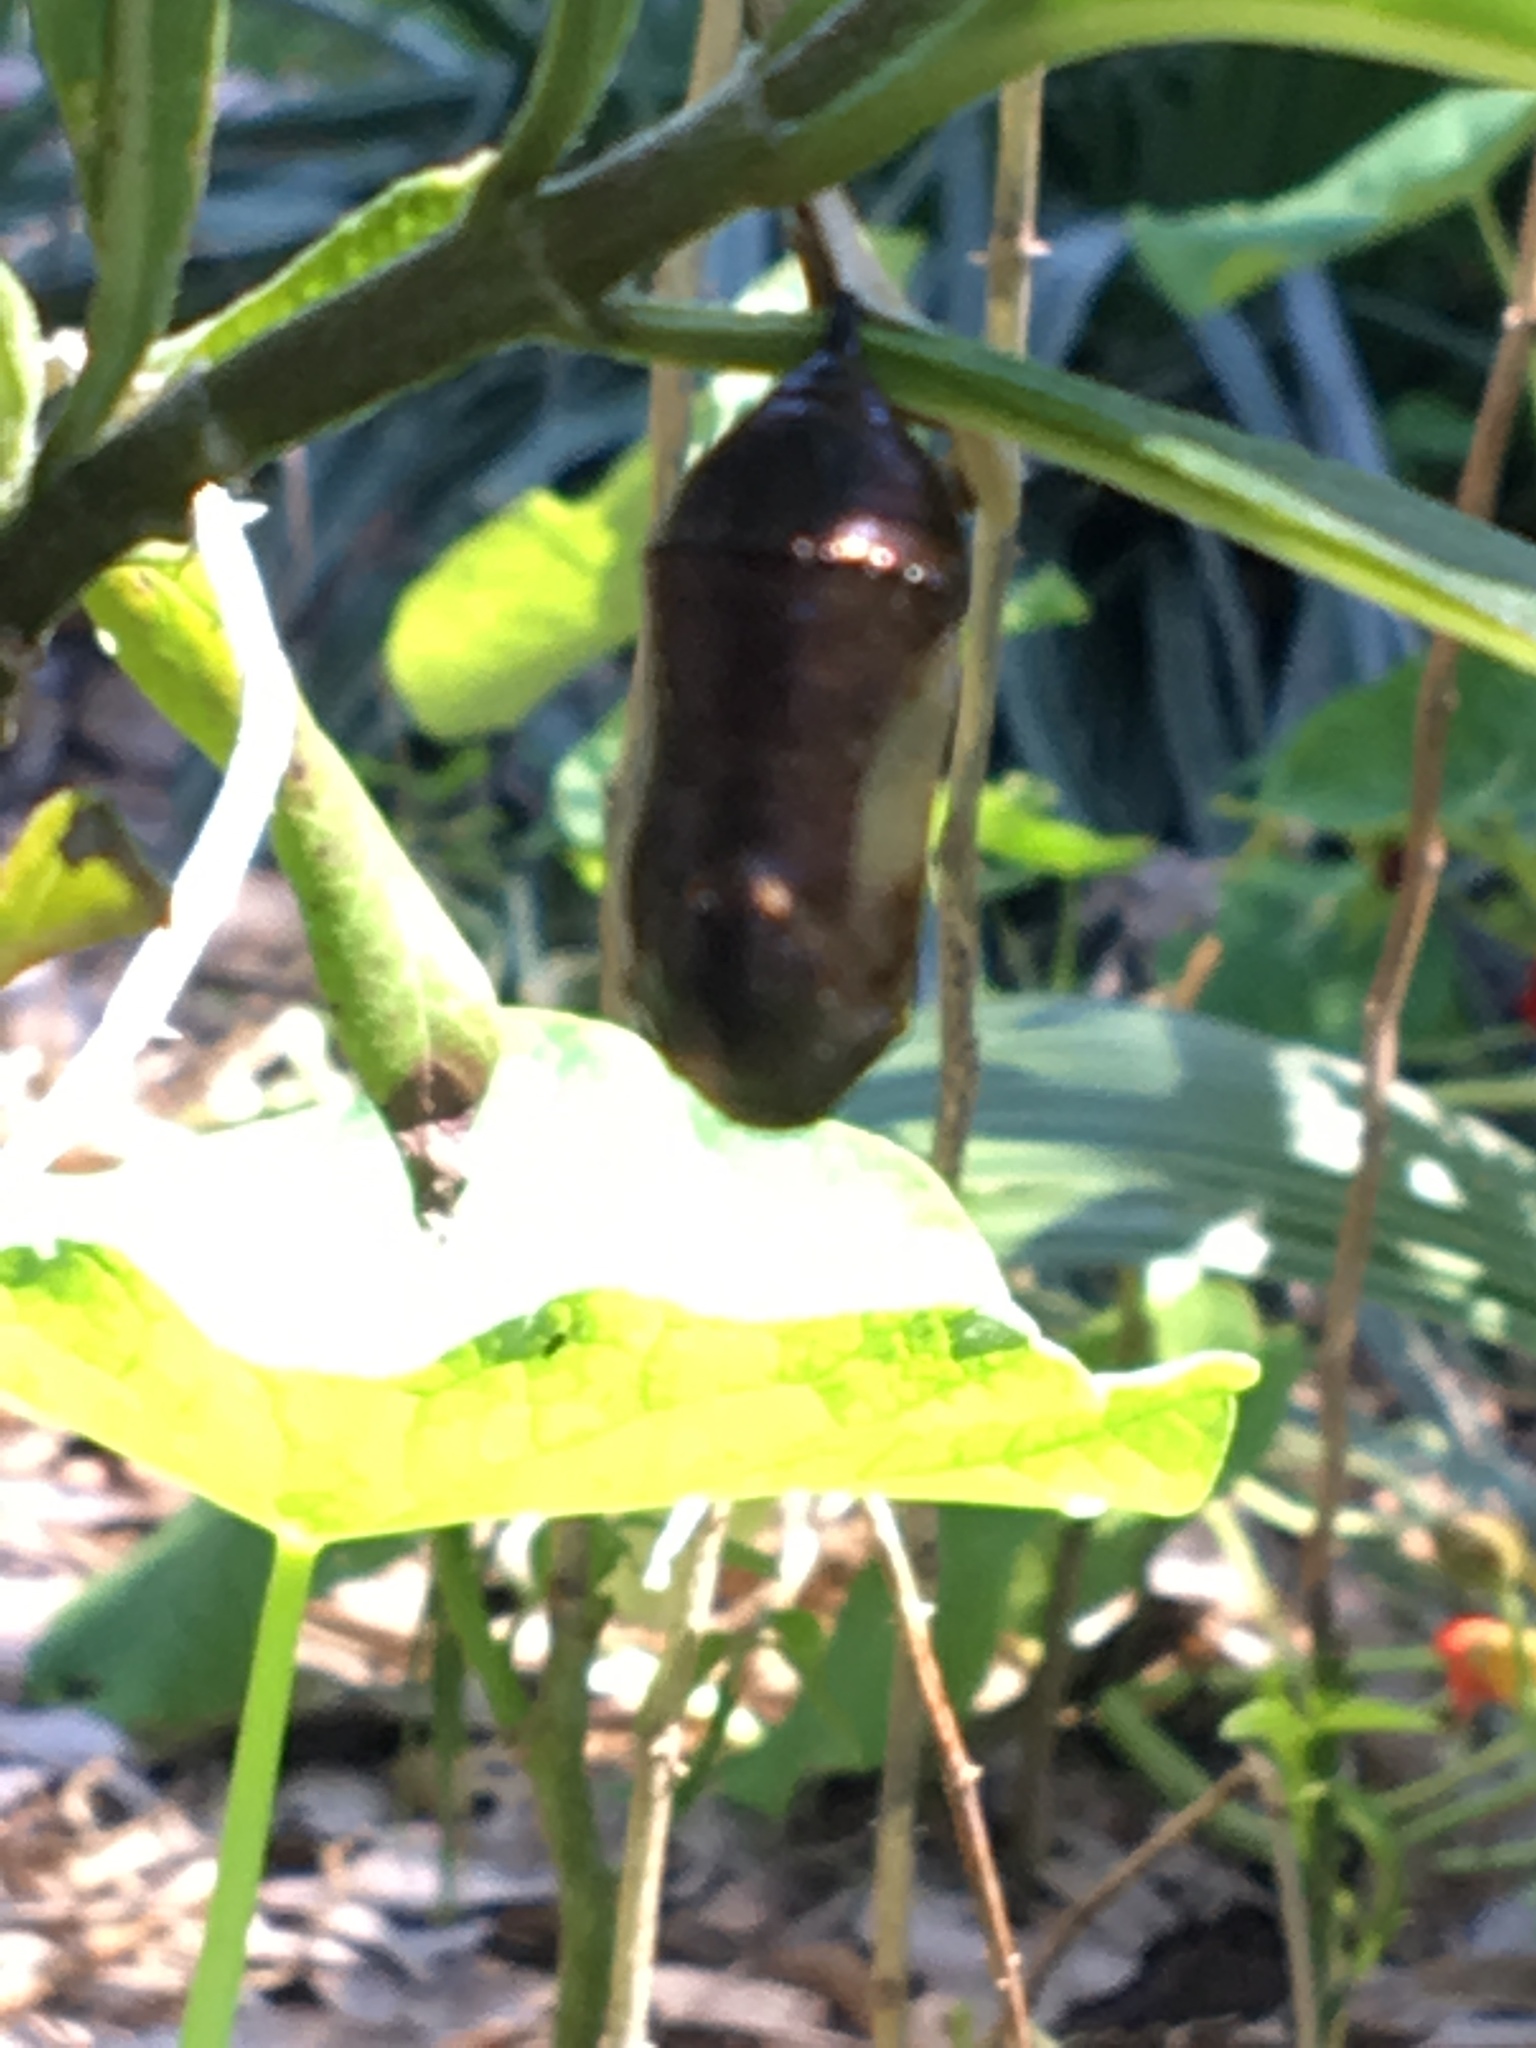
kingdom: Animalia
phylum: Arthropoda
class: Insecta
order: Lepidoptera
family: Nymphalidae
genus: Danaus
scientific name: Danaus plexippus
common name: Monarch
